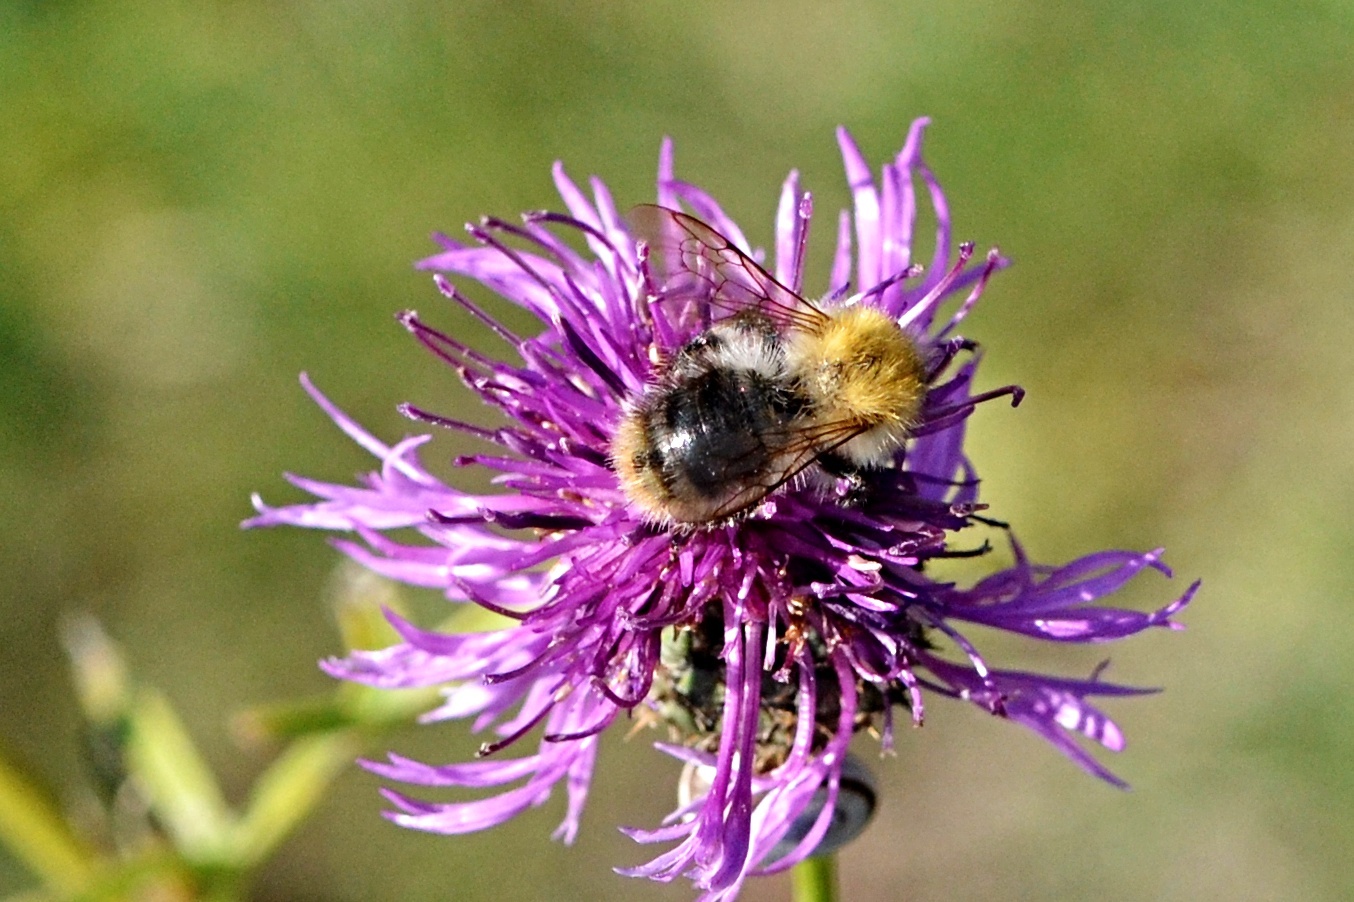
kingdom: Animalia
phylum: Arthropoda
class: Insecta
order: Hymenoptera
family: Apidae
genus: Bombus
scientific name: Bombus pascuorum
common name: Common carder bee
